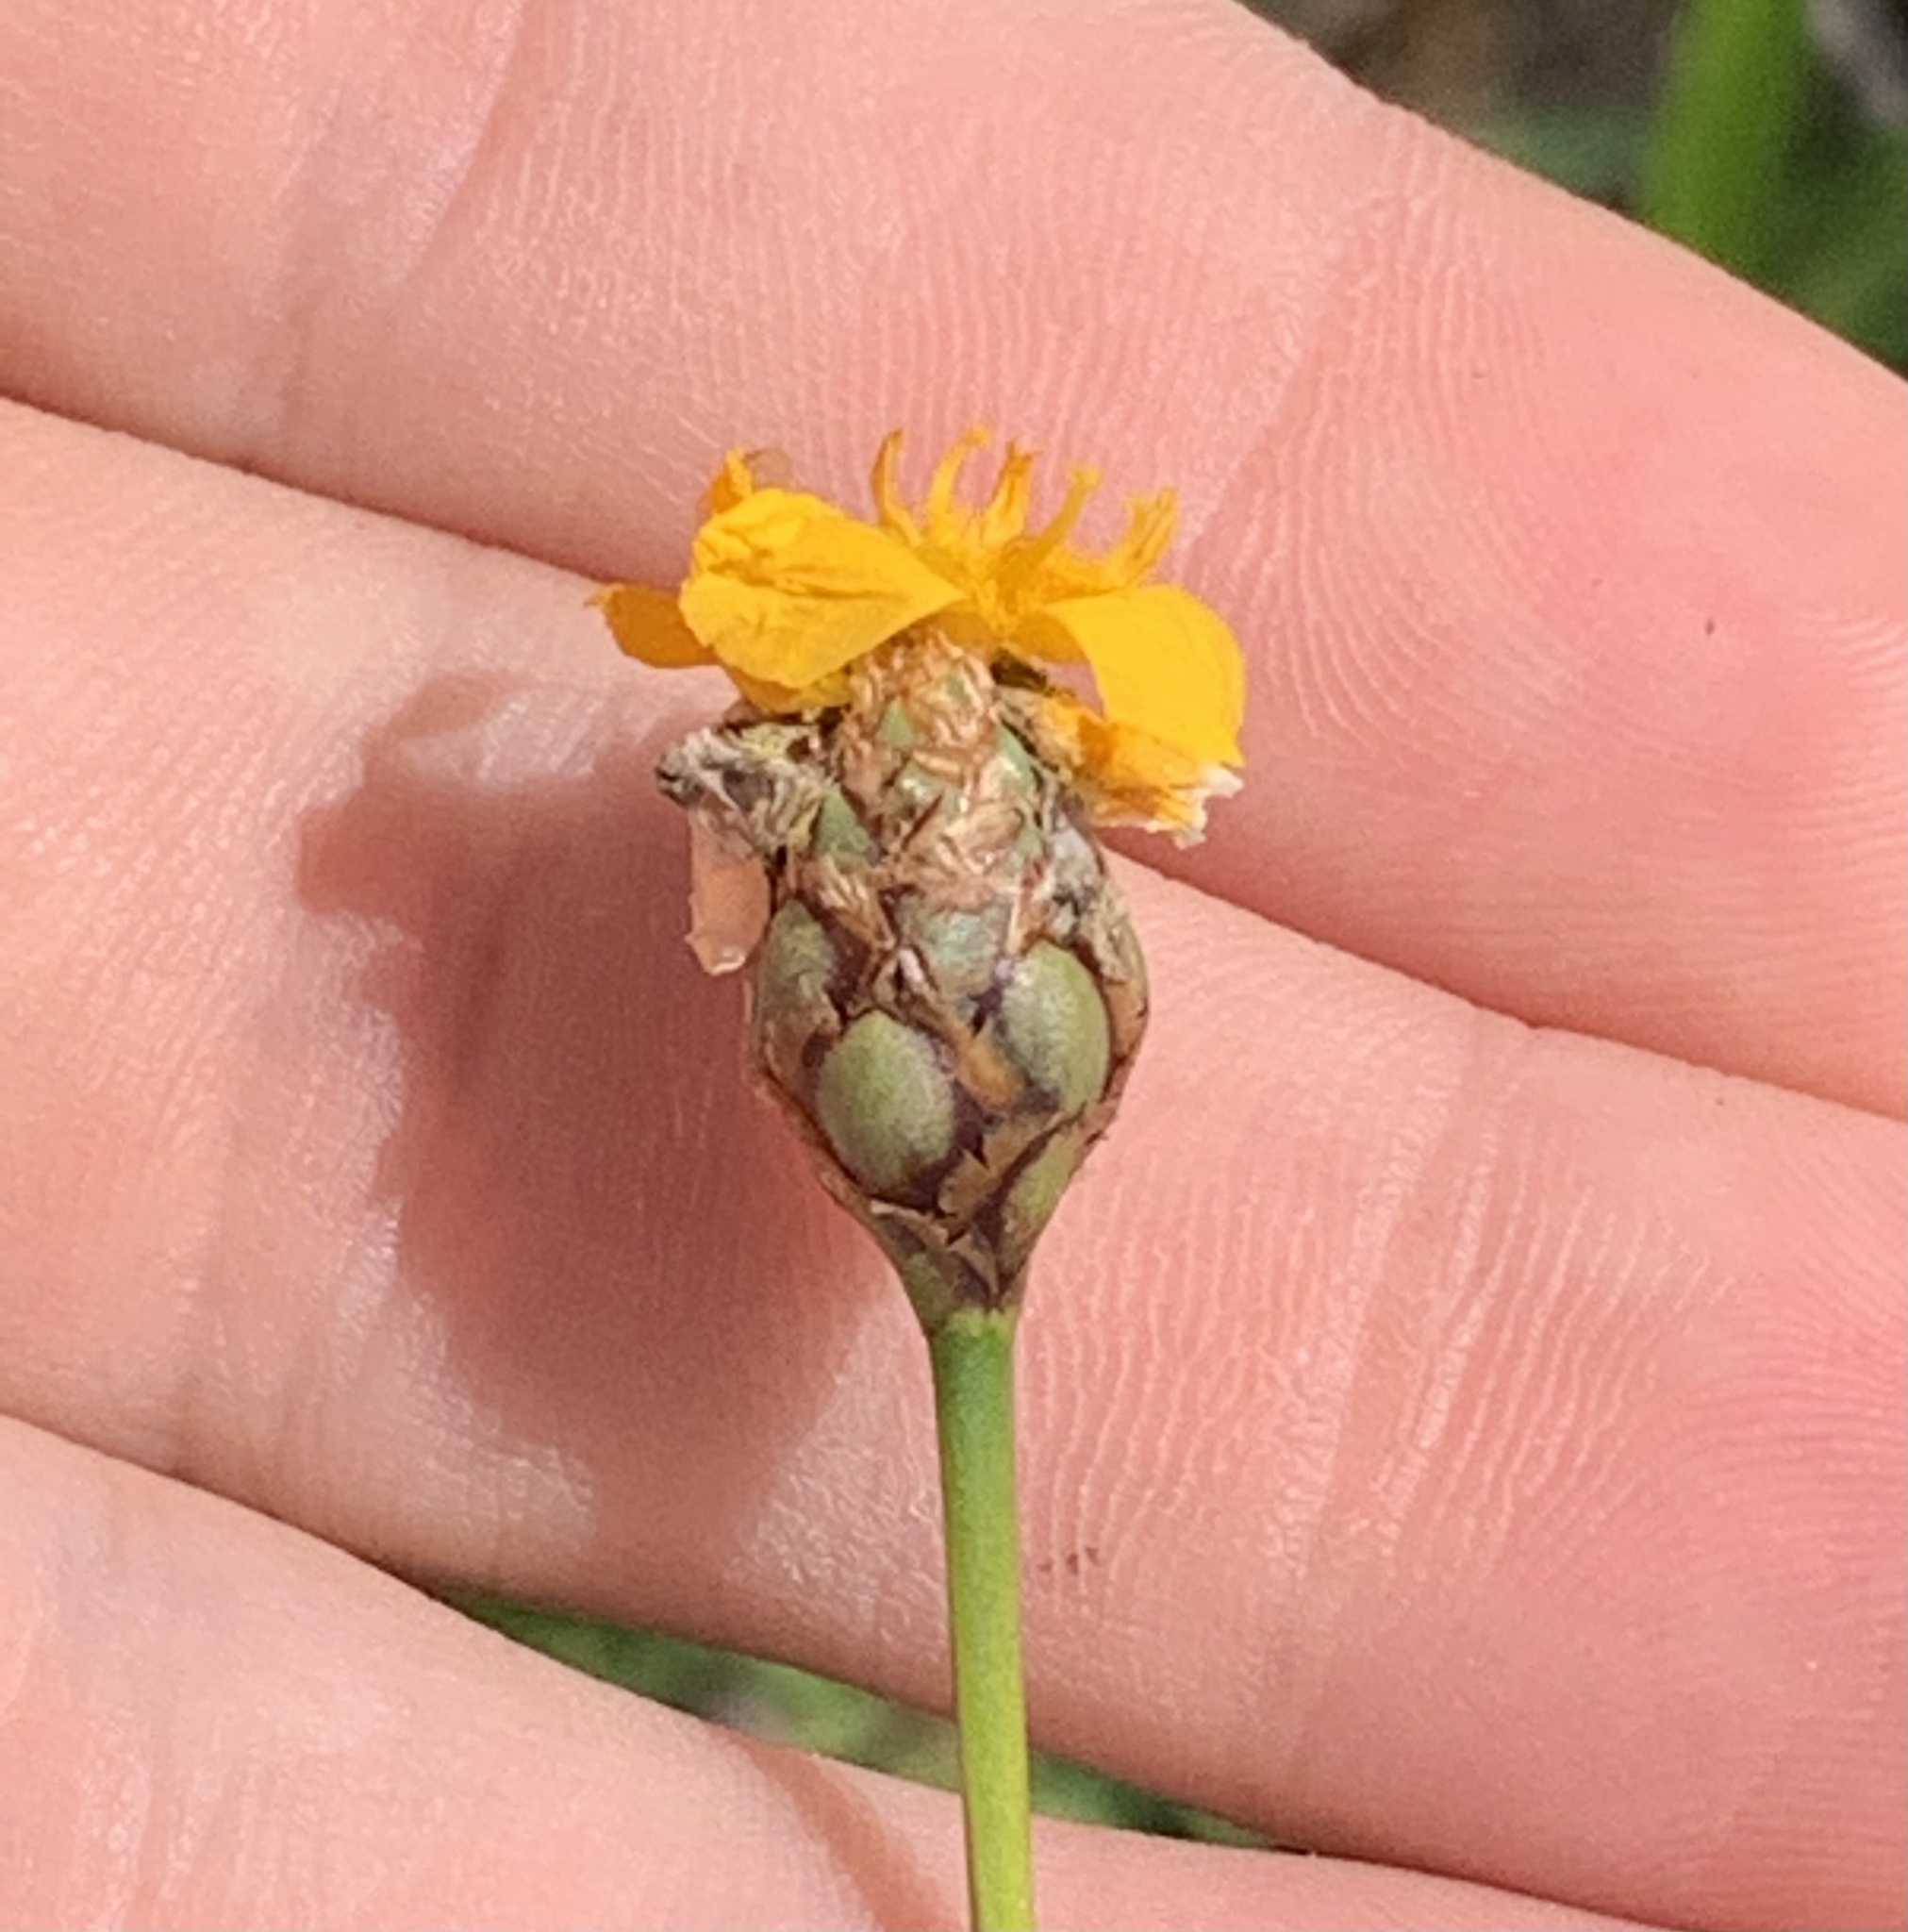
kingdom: Plantae
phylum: Tracheophyta
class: Liliopsida
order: Poales
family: Xyridaceae
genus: Xyris
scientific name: Xyris elliottii
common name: Elliot's yelloweyed grass
